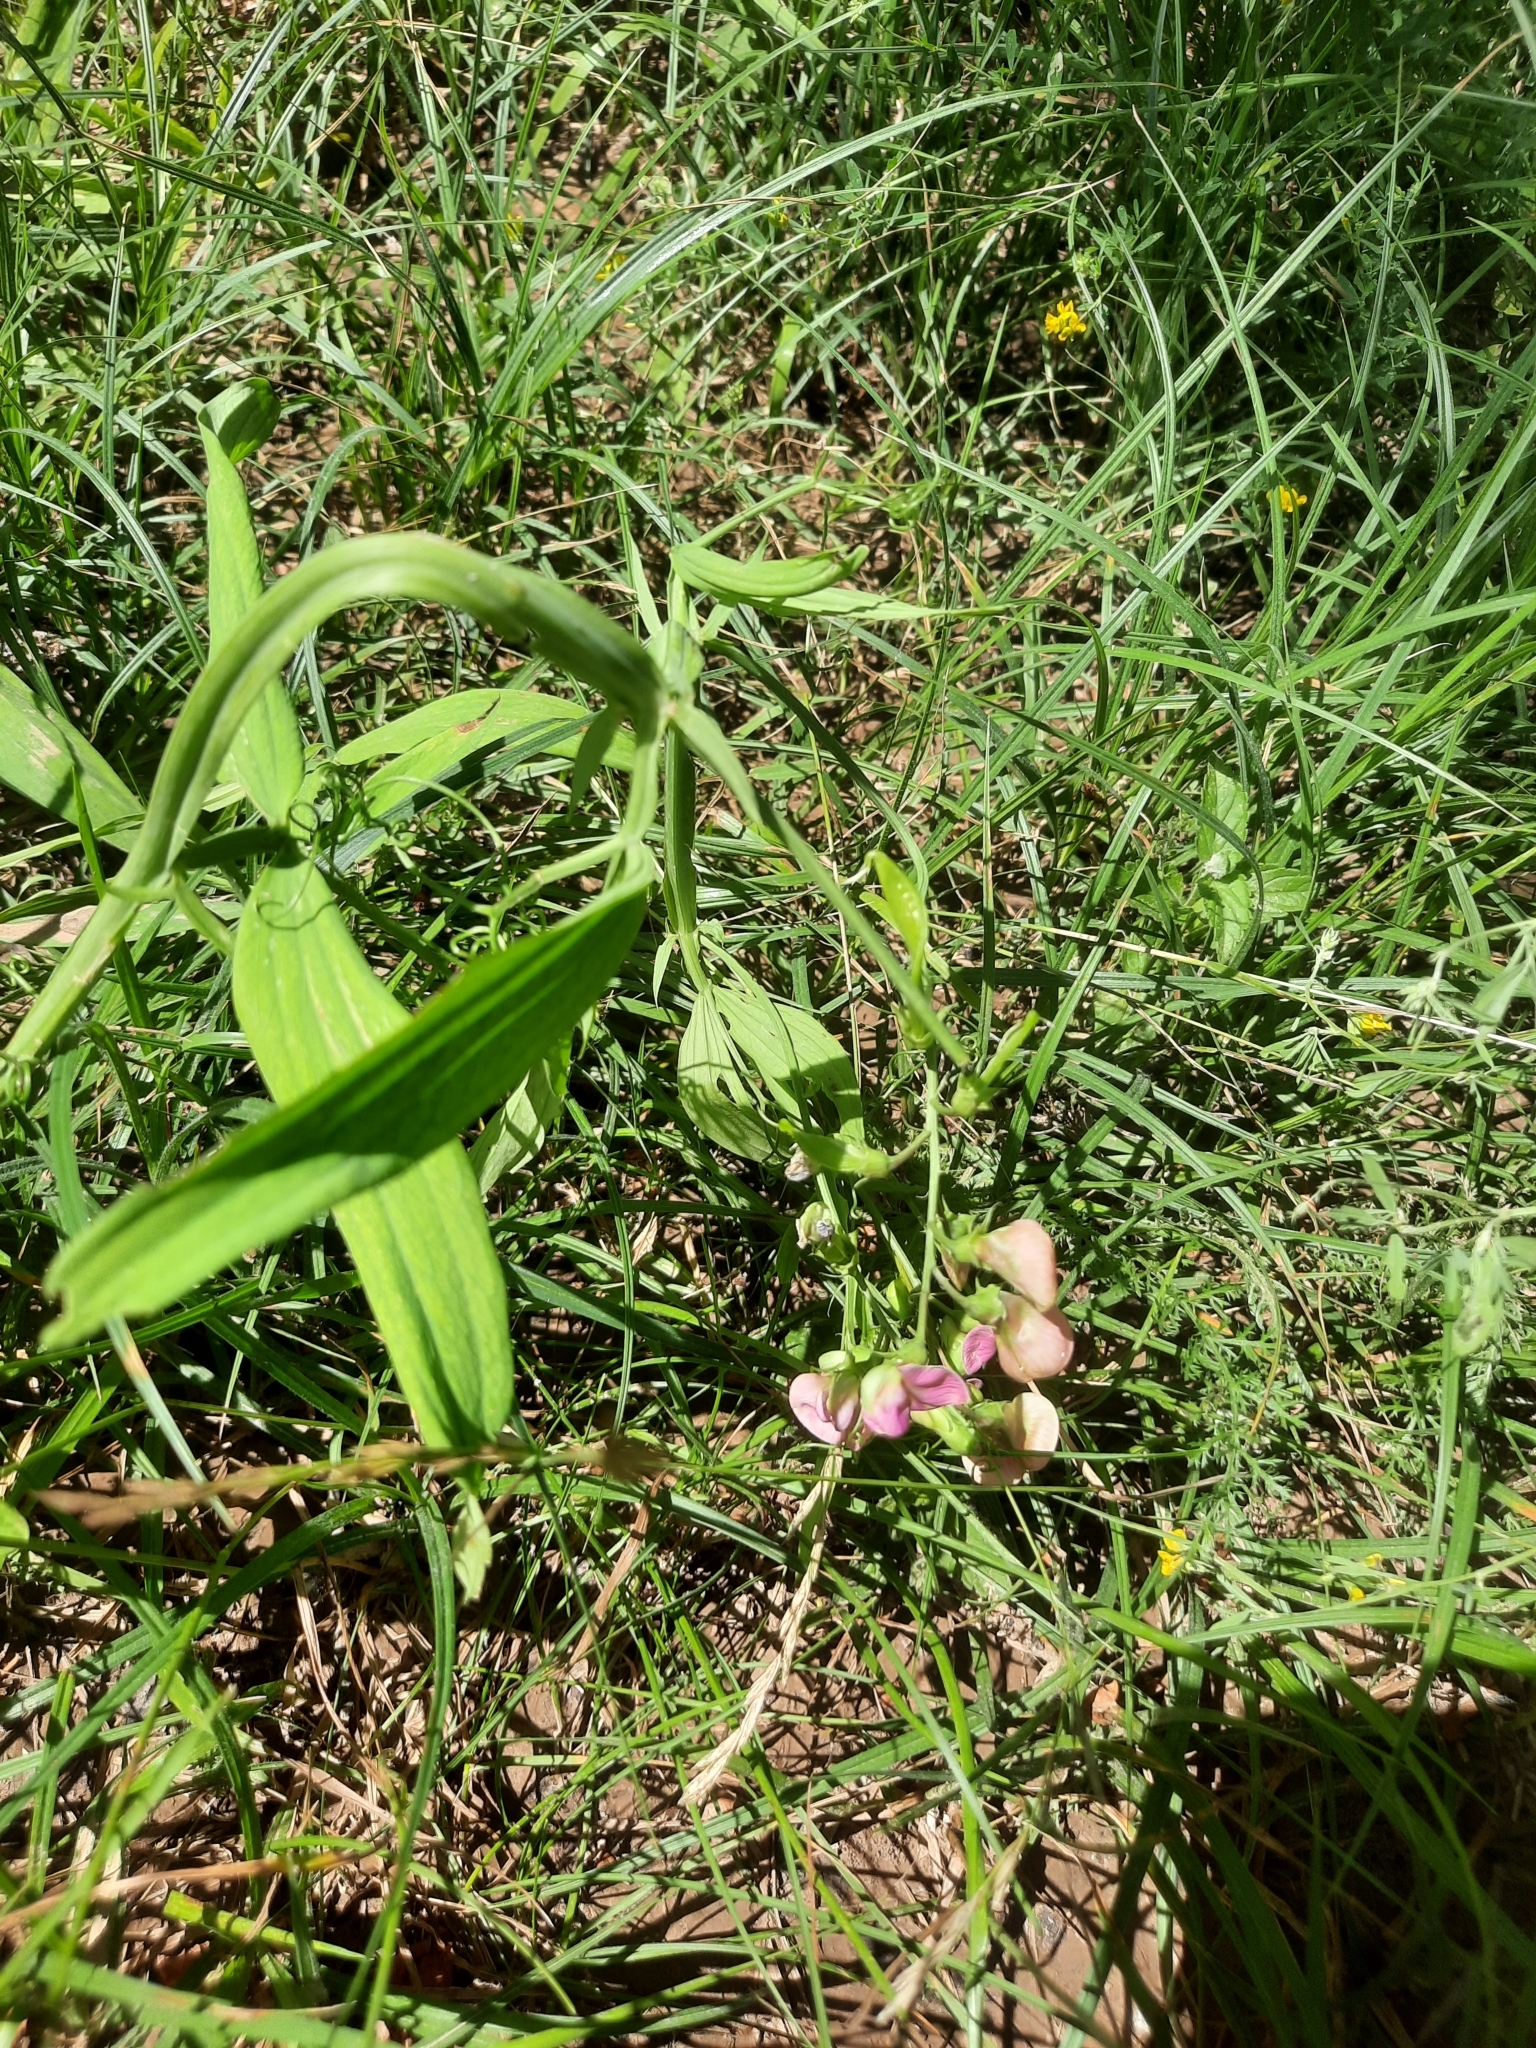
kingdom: Plantae
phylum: Tracheophyta
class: Magnoliopsida
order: Fabales
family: Fabaceae
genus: Lathyrus
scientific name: Lathyrus sylvestris
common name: Flat pea
